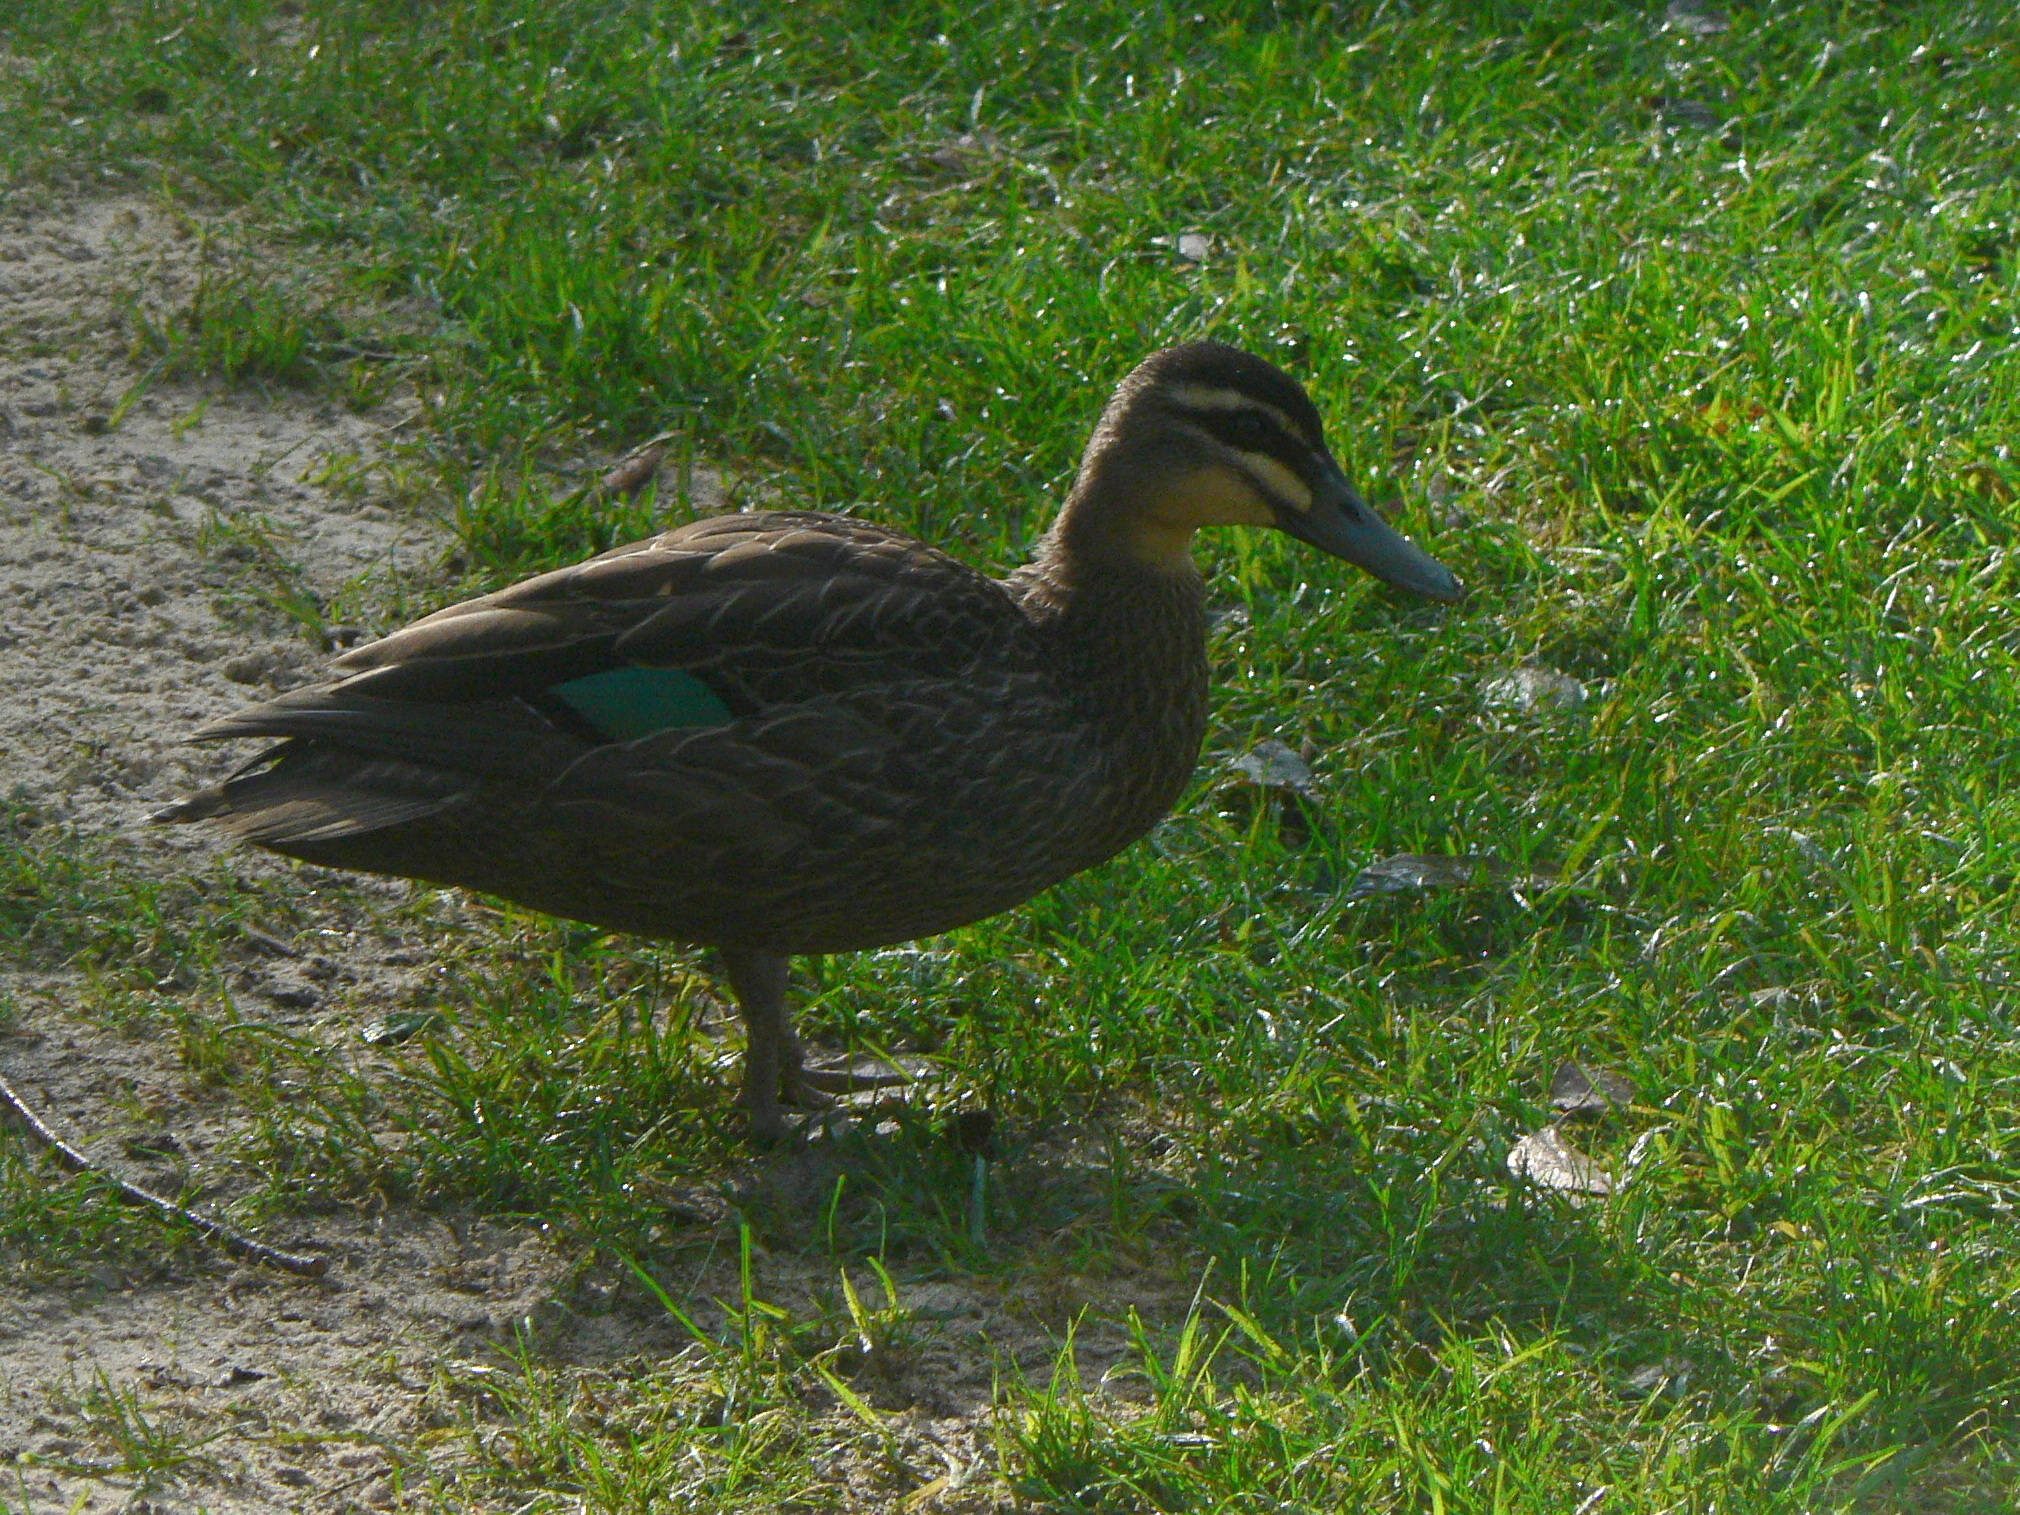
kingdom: Animalia
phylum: Chordata
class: Aves
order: Anseriformes
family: Anatidae
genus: Anas
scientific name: Anas superciliosa
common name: Pacific black duck
